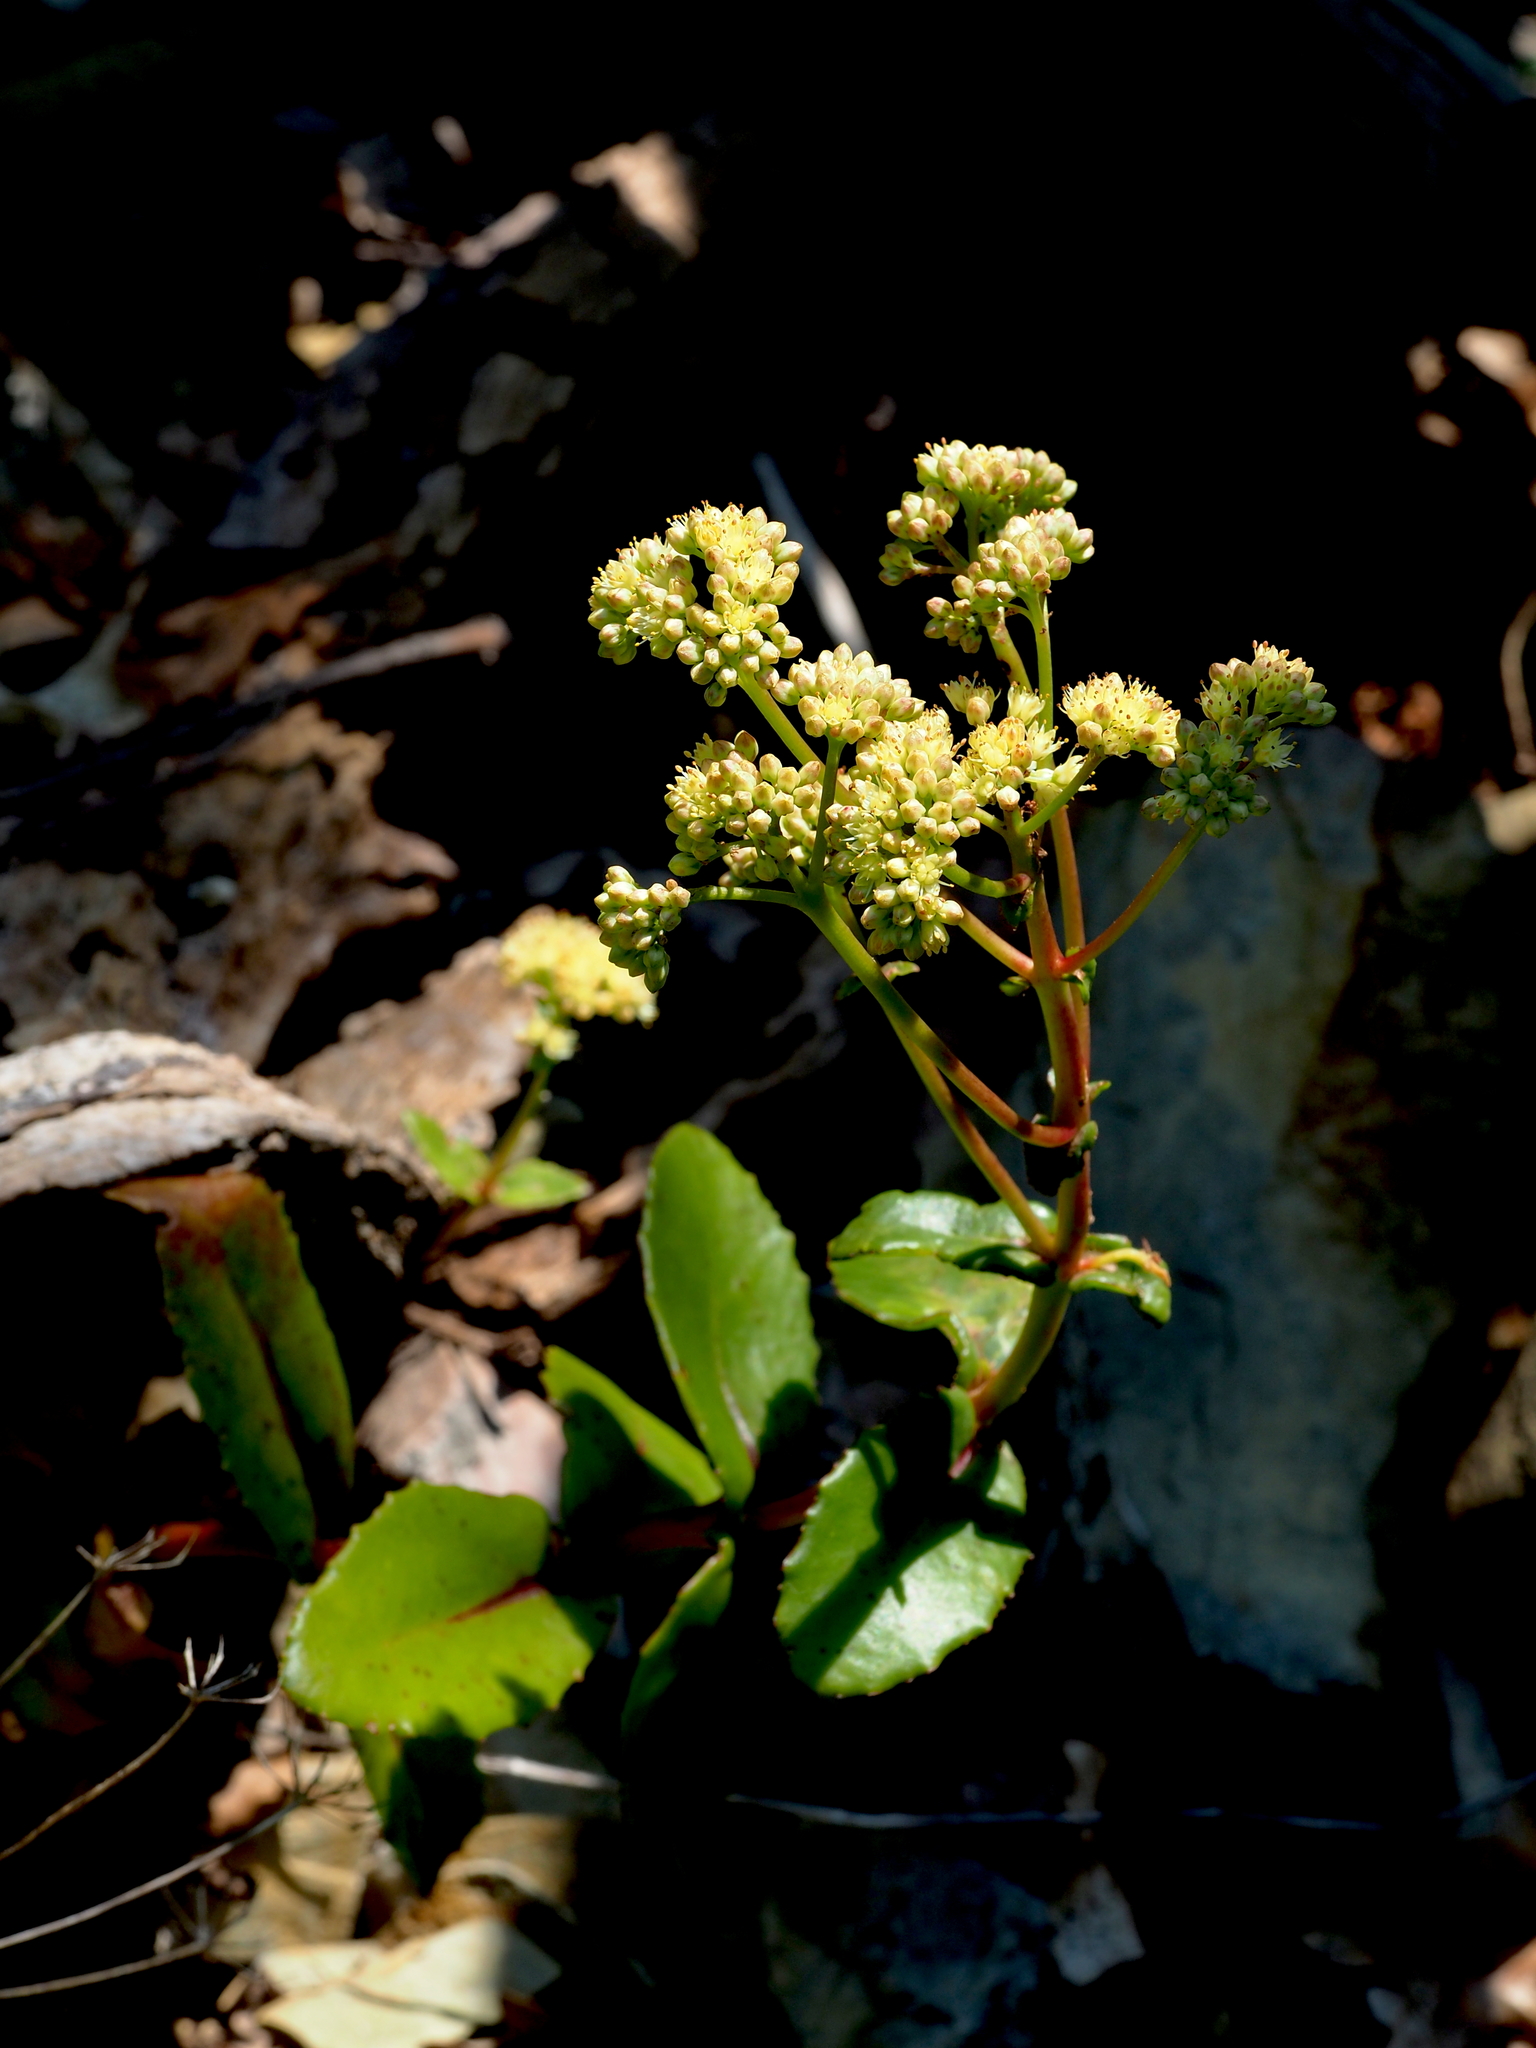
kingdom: Plantae
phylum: Tracheophyta
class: Magnoliopsida
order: Saxifragales
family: Crassulaceae
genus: Hylotelephium
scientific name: Hylotelephium maximum
